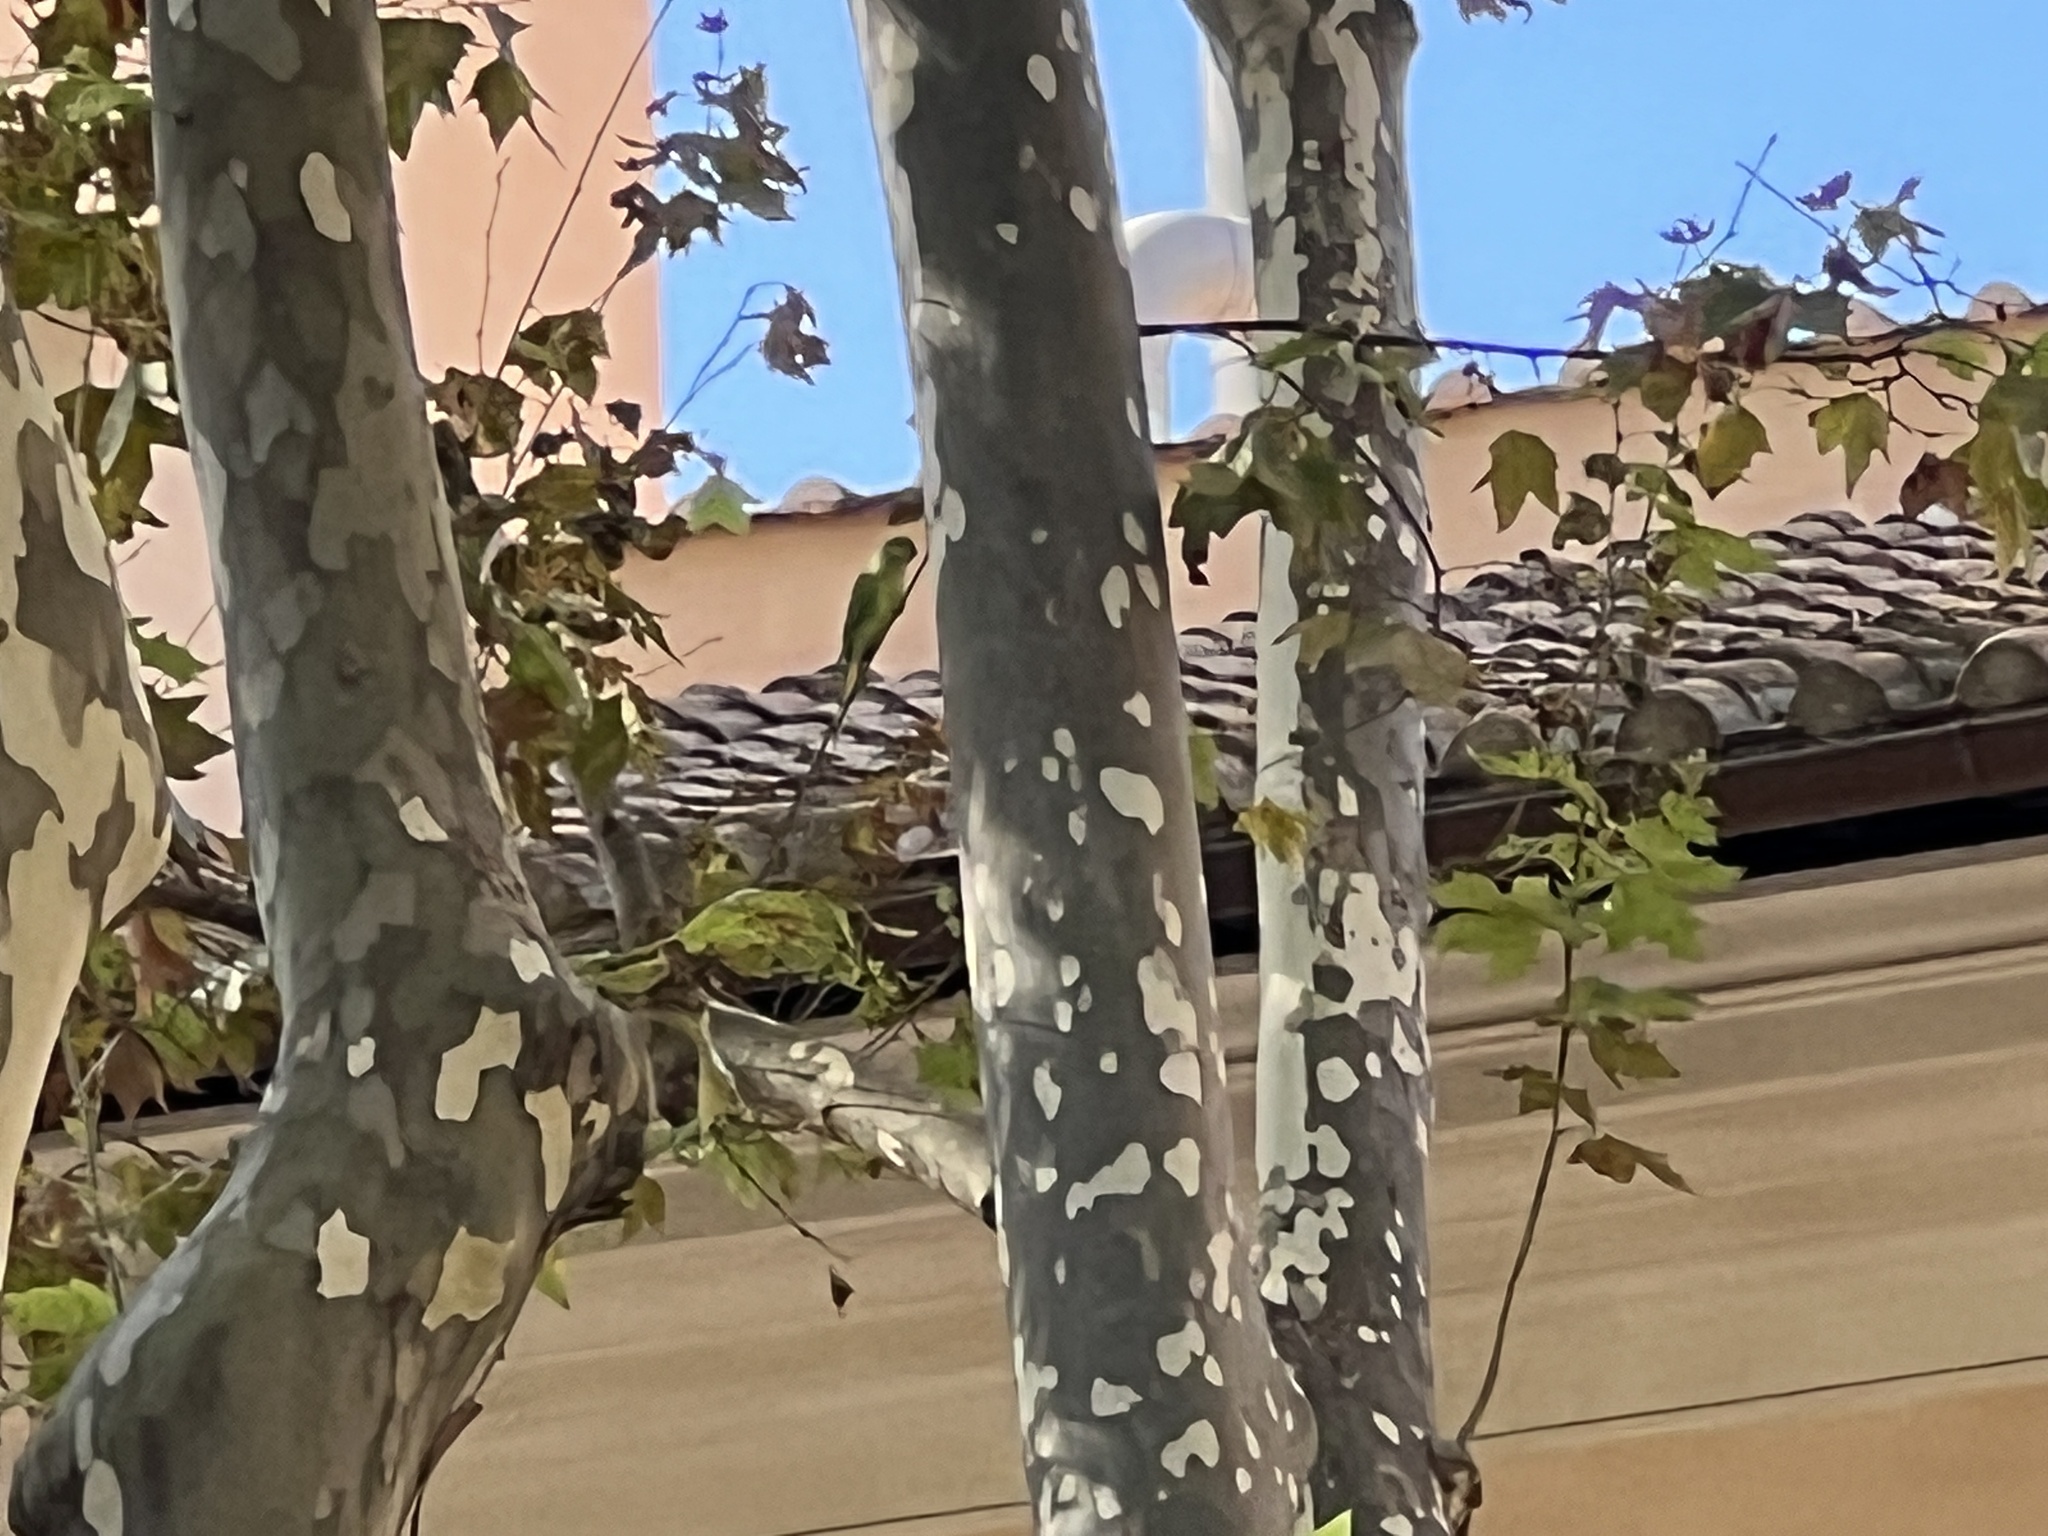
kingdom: Animalia
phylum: Chordata
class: Aves
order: Psittaciformes
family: Psittacidae
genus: Psittacula
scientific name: Psittacula krameri
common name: Rose-ringed parakeet
